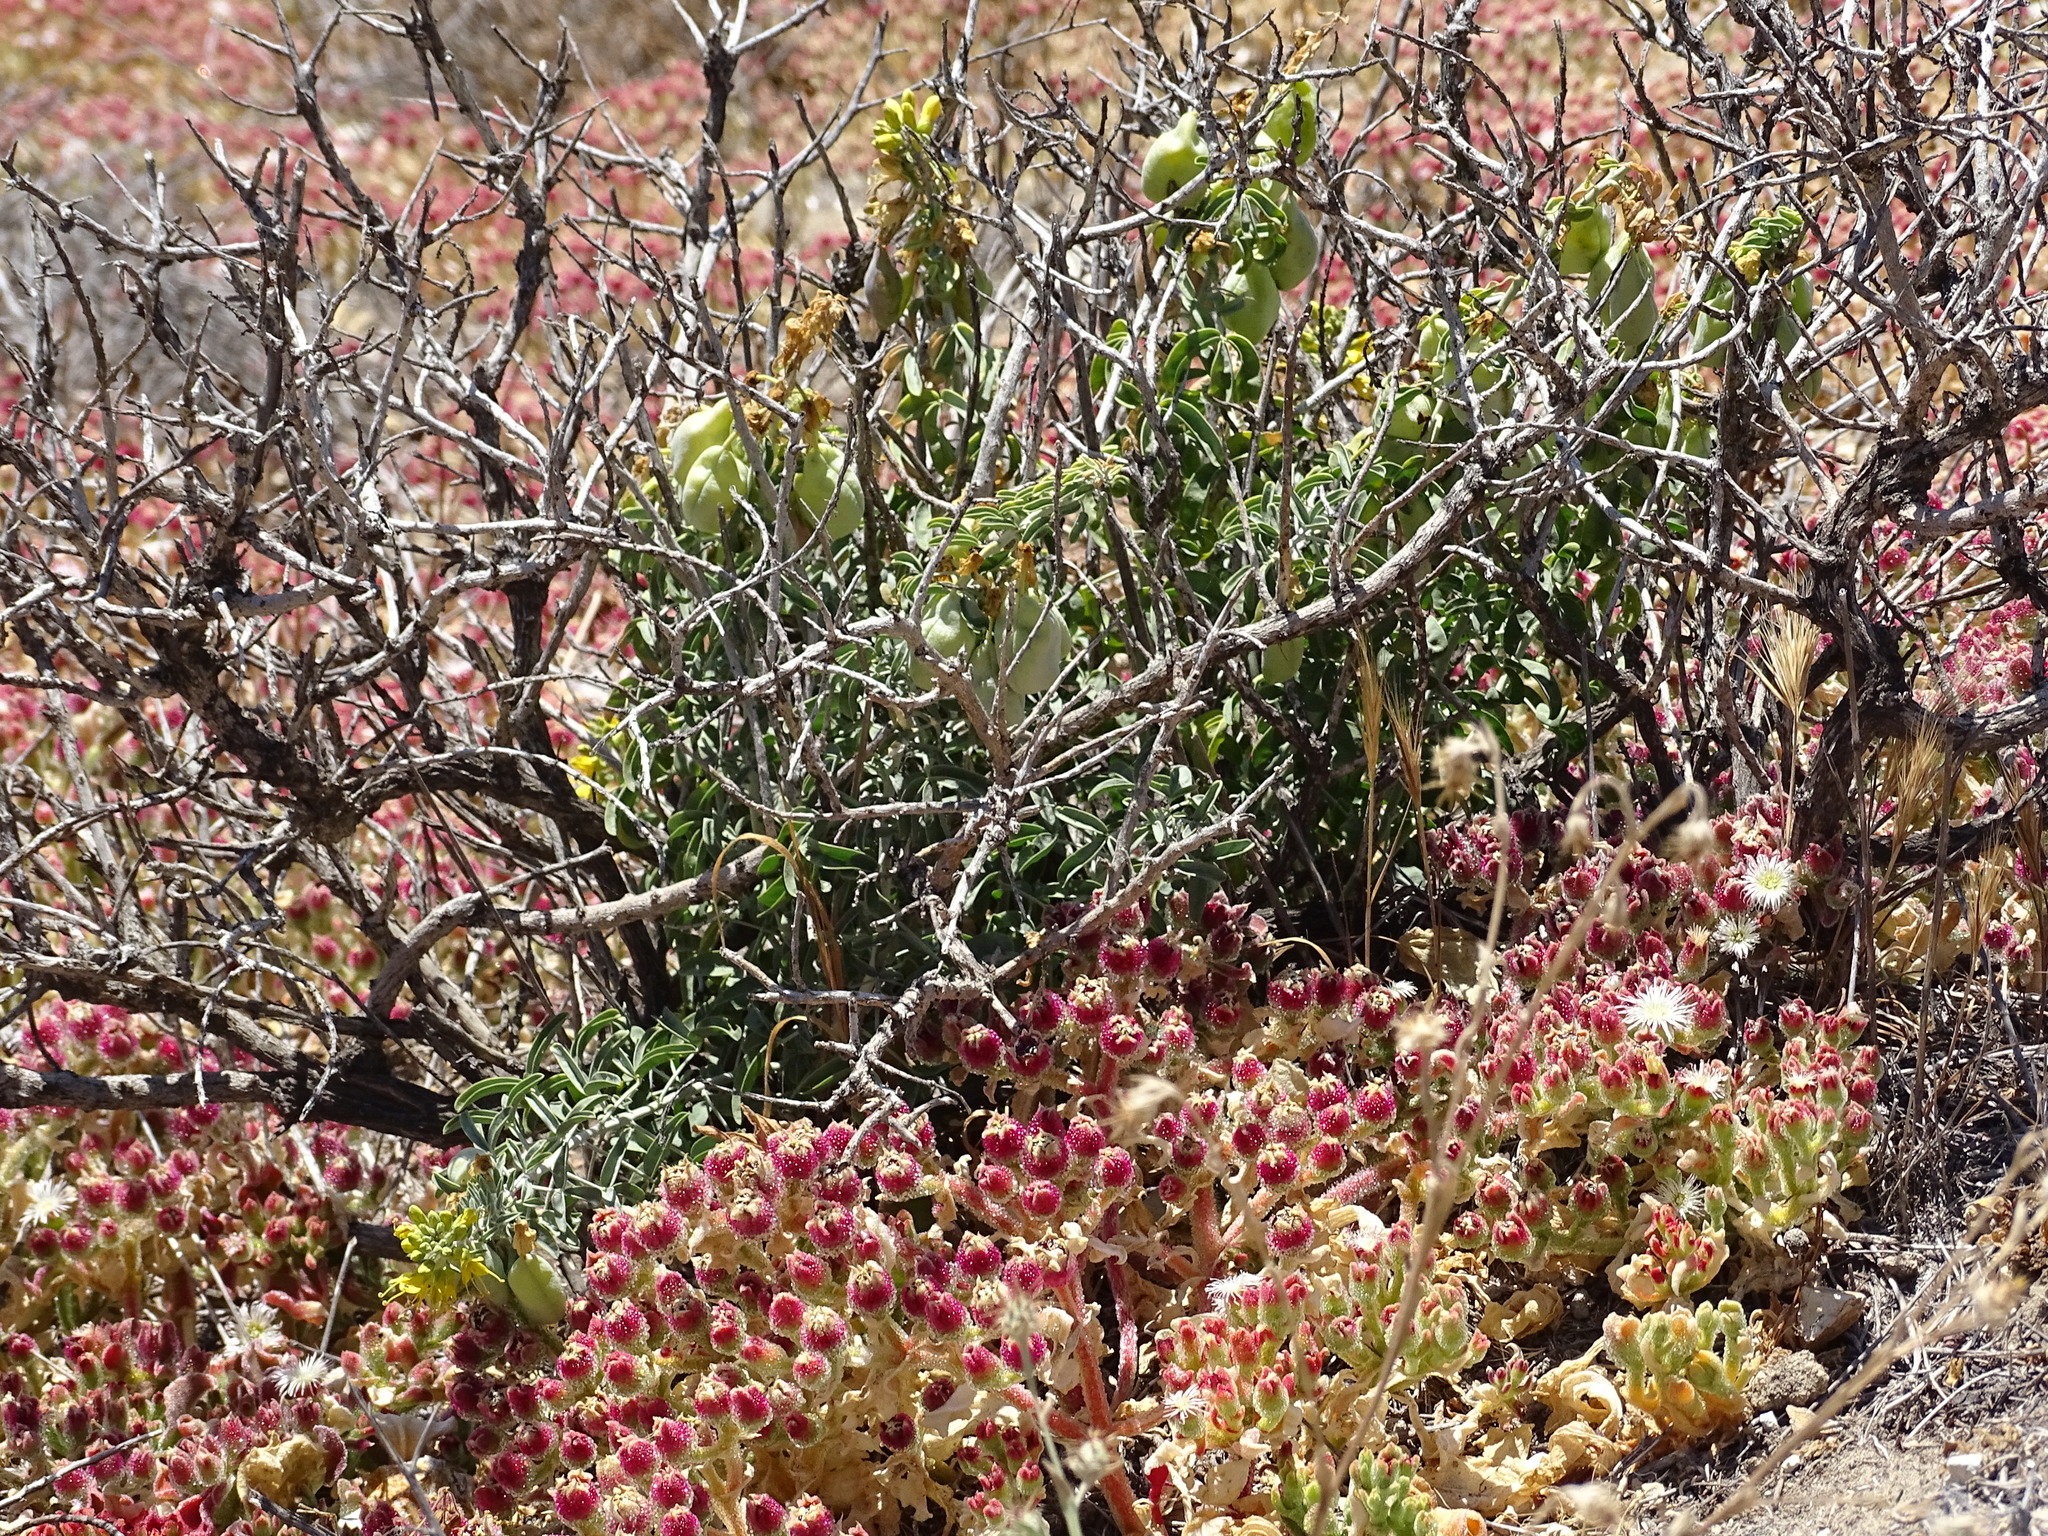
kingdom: Plantae
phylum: Tracheophyta
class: Magnoliopsida
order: Brassicales
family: Cleomaceae
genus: Cleomella
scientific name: Cleomella arborea
